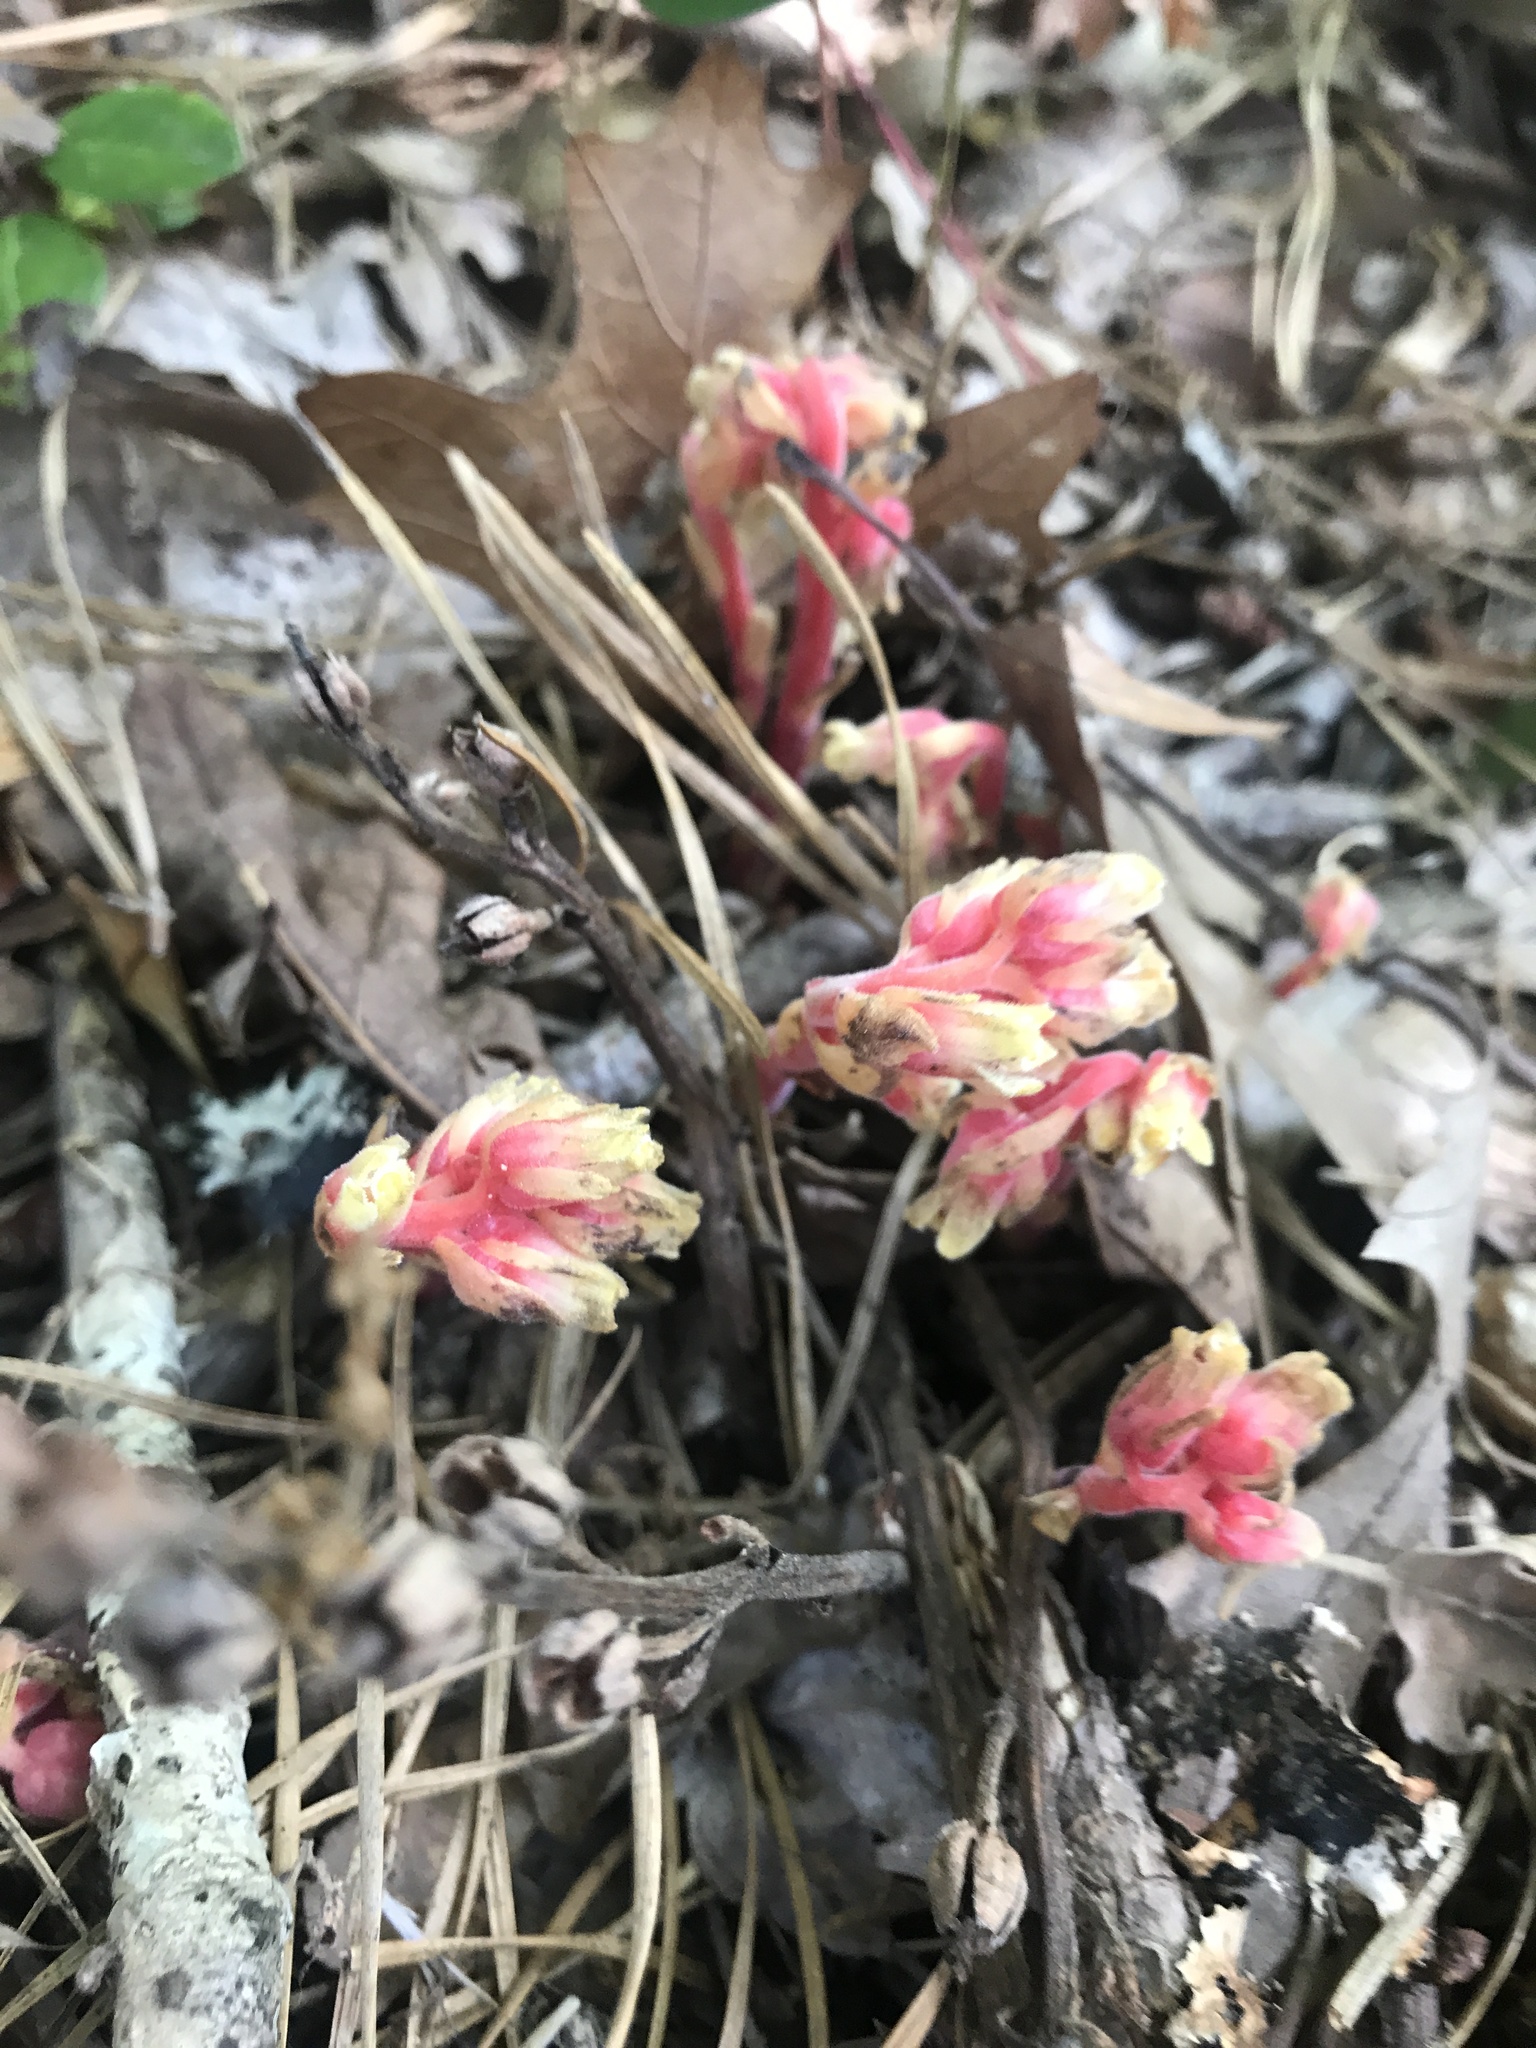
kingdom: Plantae
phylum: Tracheophyta
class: Magnoliopsida
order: Ericales
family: Ericaceae
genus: Hypopitys
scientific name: Hypopitys monotropa
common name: Yellow bird's-nest
